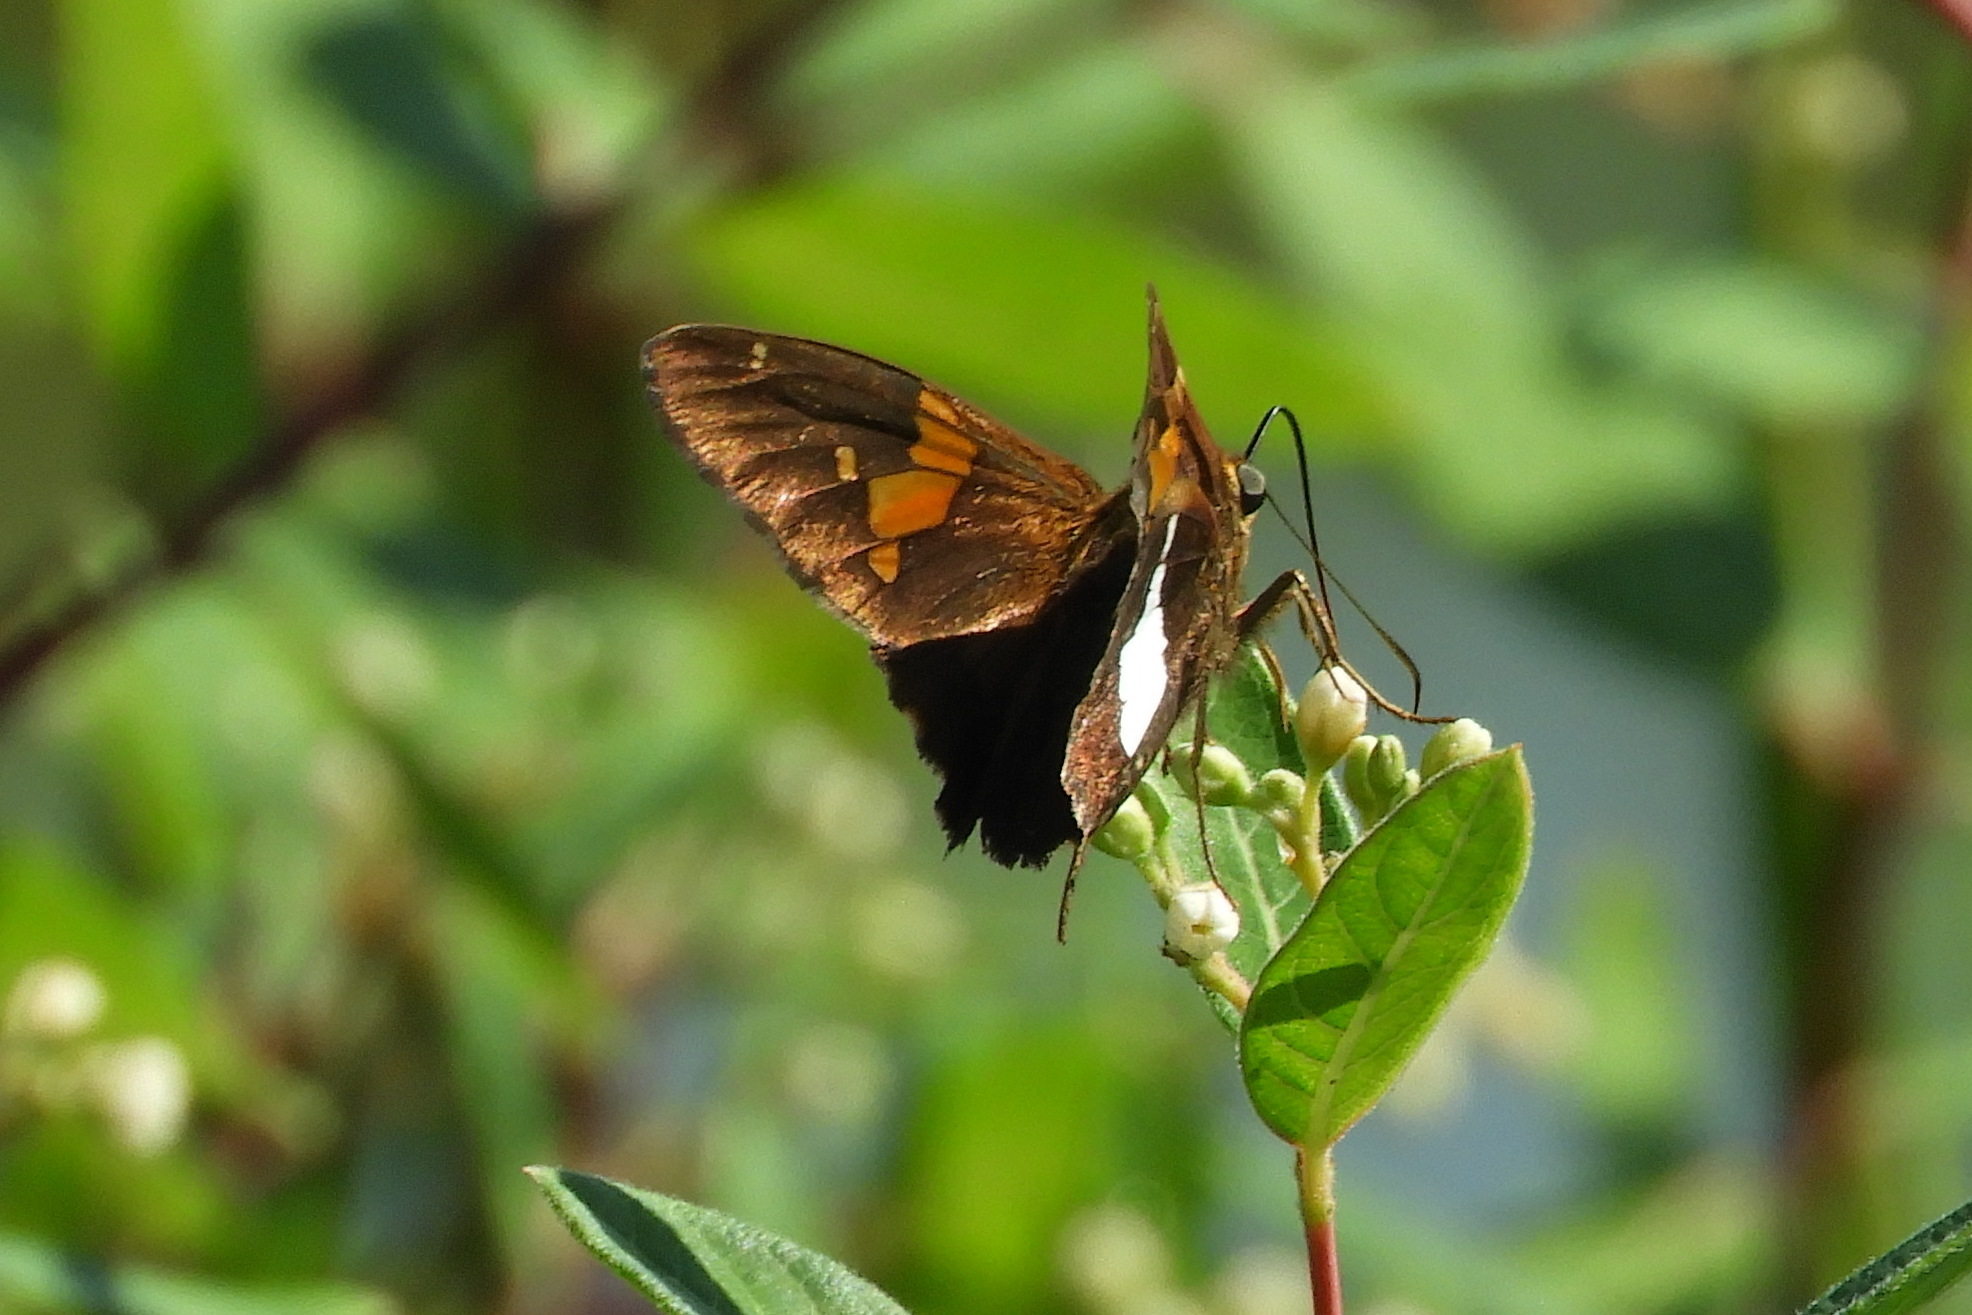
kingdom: Animalia
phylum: Arthropoda
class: Insecta
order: Lepidoptera
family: Hesperiidae
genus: Epargyreus
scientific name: Epargyreus clarus
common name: Silver-spotted skipper
